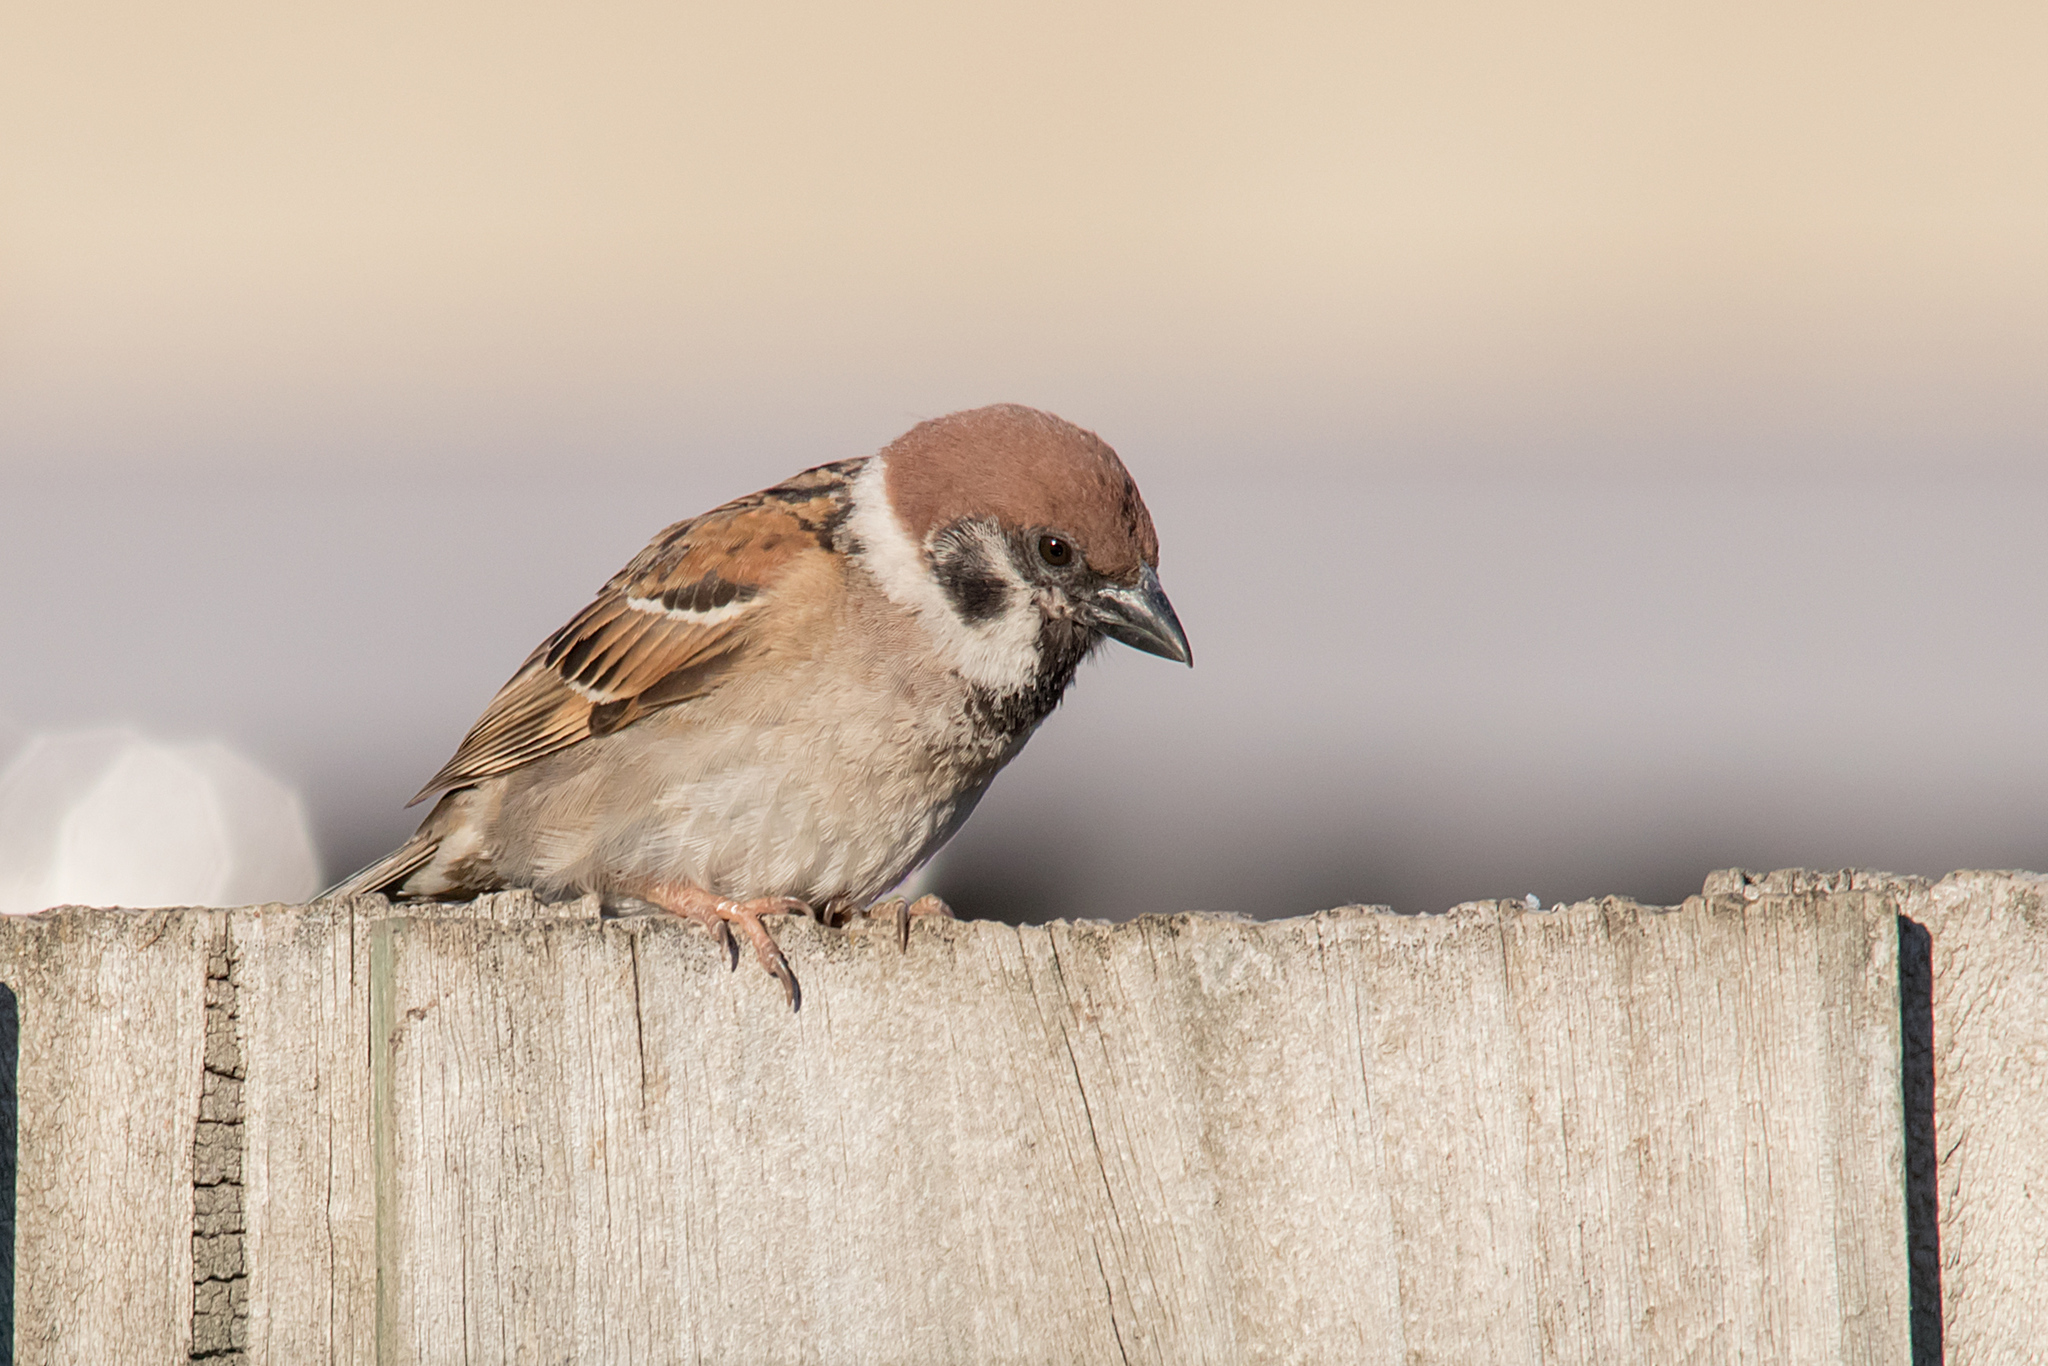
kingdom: Animalia
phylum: Chordata
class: Aves
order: Passeriformes
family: Passeridae
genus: Passer
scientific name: Passer montanus
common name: Eurasian tree sparrow
